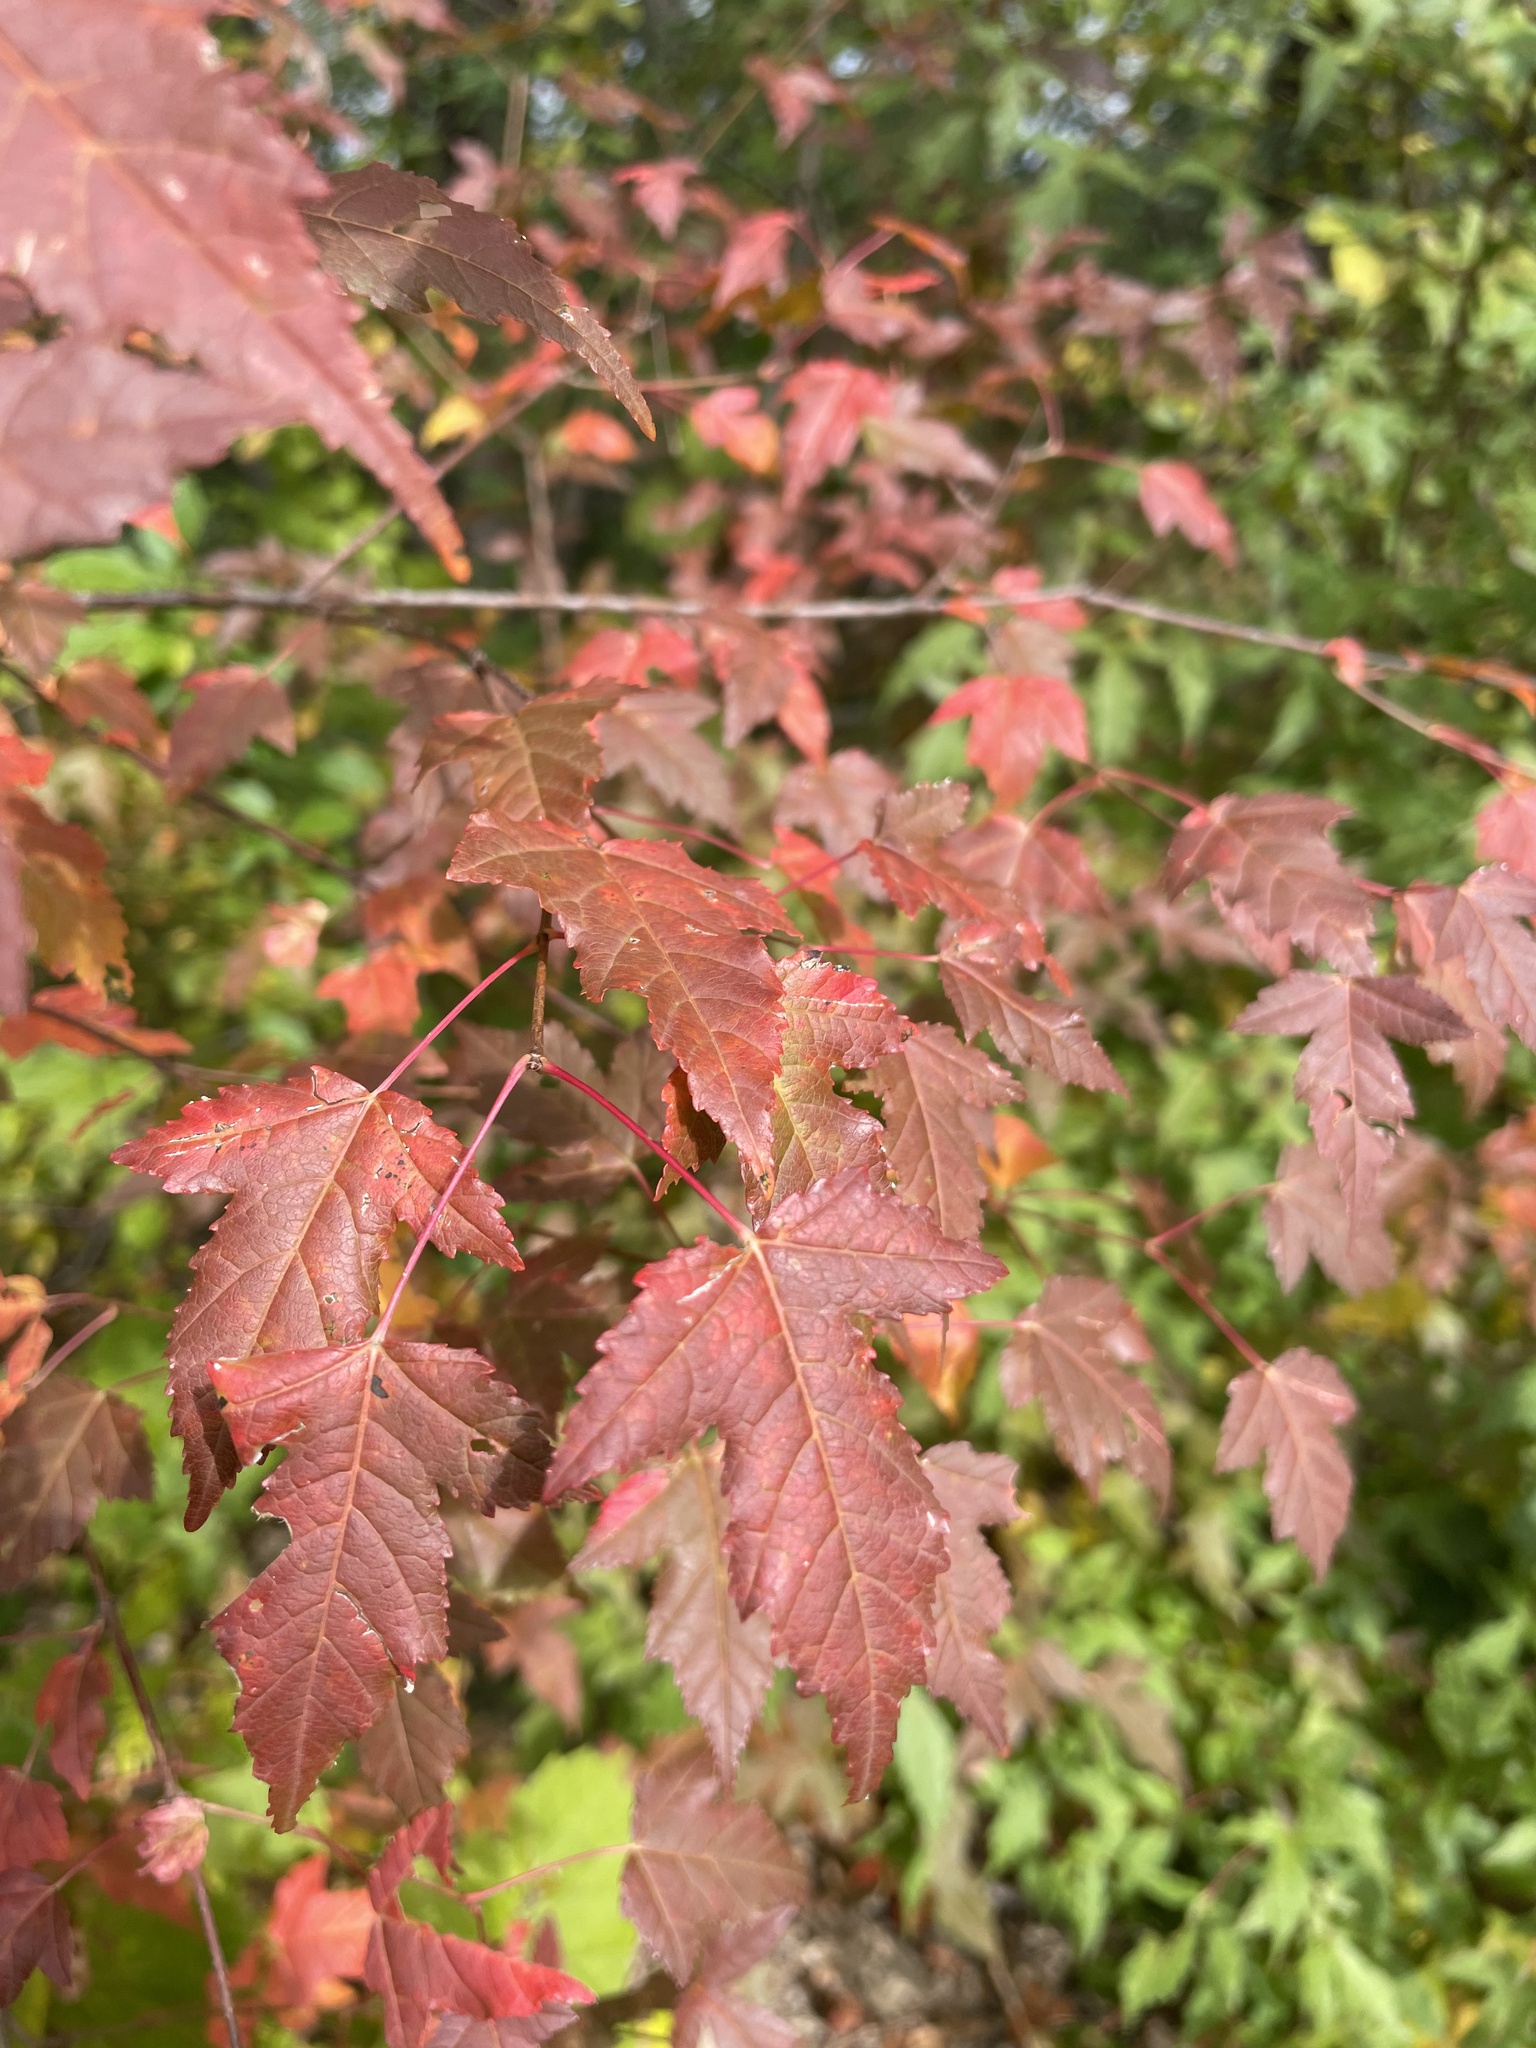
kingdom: Plantae
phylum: Tracheophyta
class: Magnoliopsida
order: Sapindales
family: Sapindaceae
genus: Acer
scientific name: Acer tataricum
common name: Tartar maple
